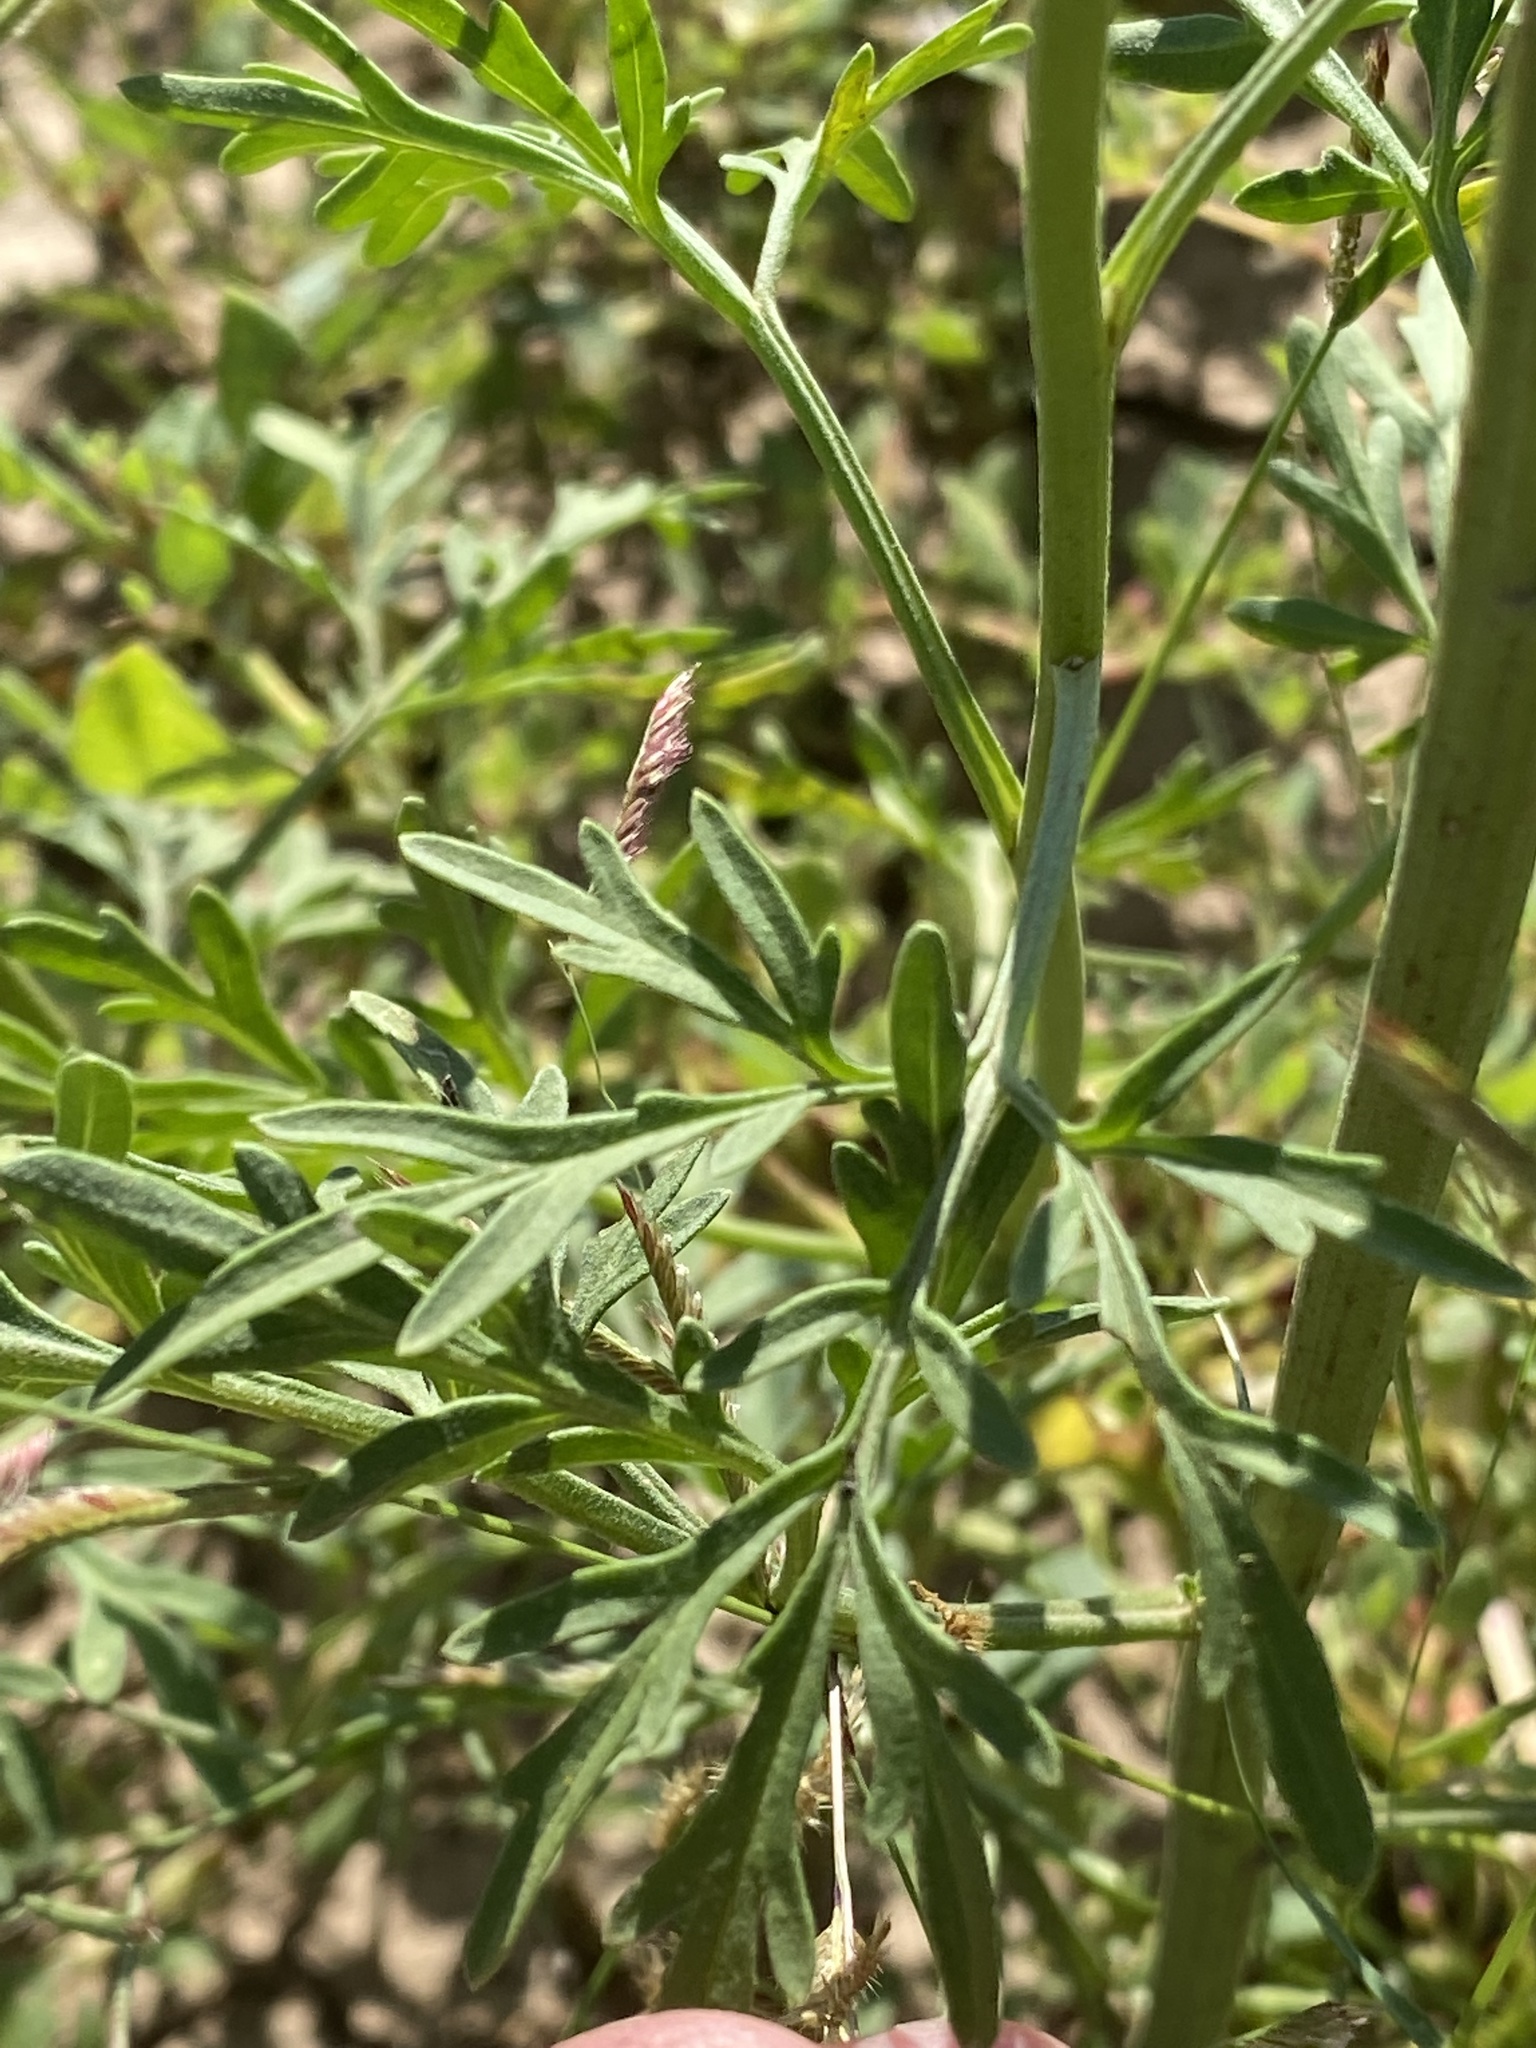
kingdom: Plantae
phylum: Tracheophyta
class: Magnoliopsida
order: Asterales
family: Asteraceae
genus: Hymenothrix
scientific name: Hymenothrix wislizeni
